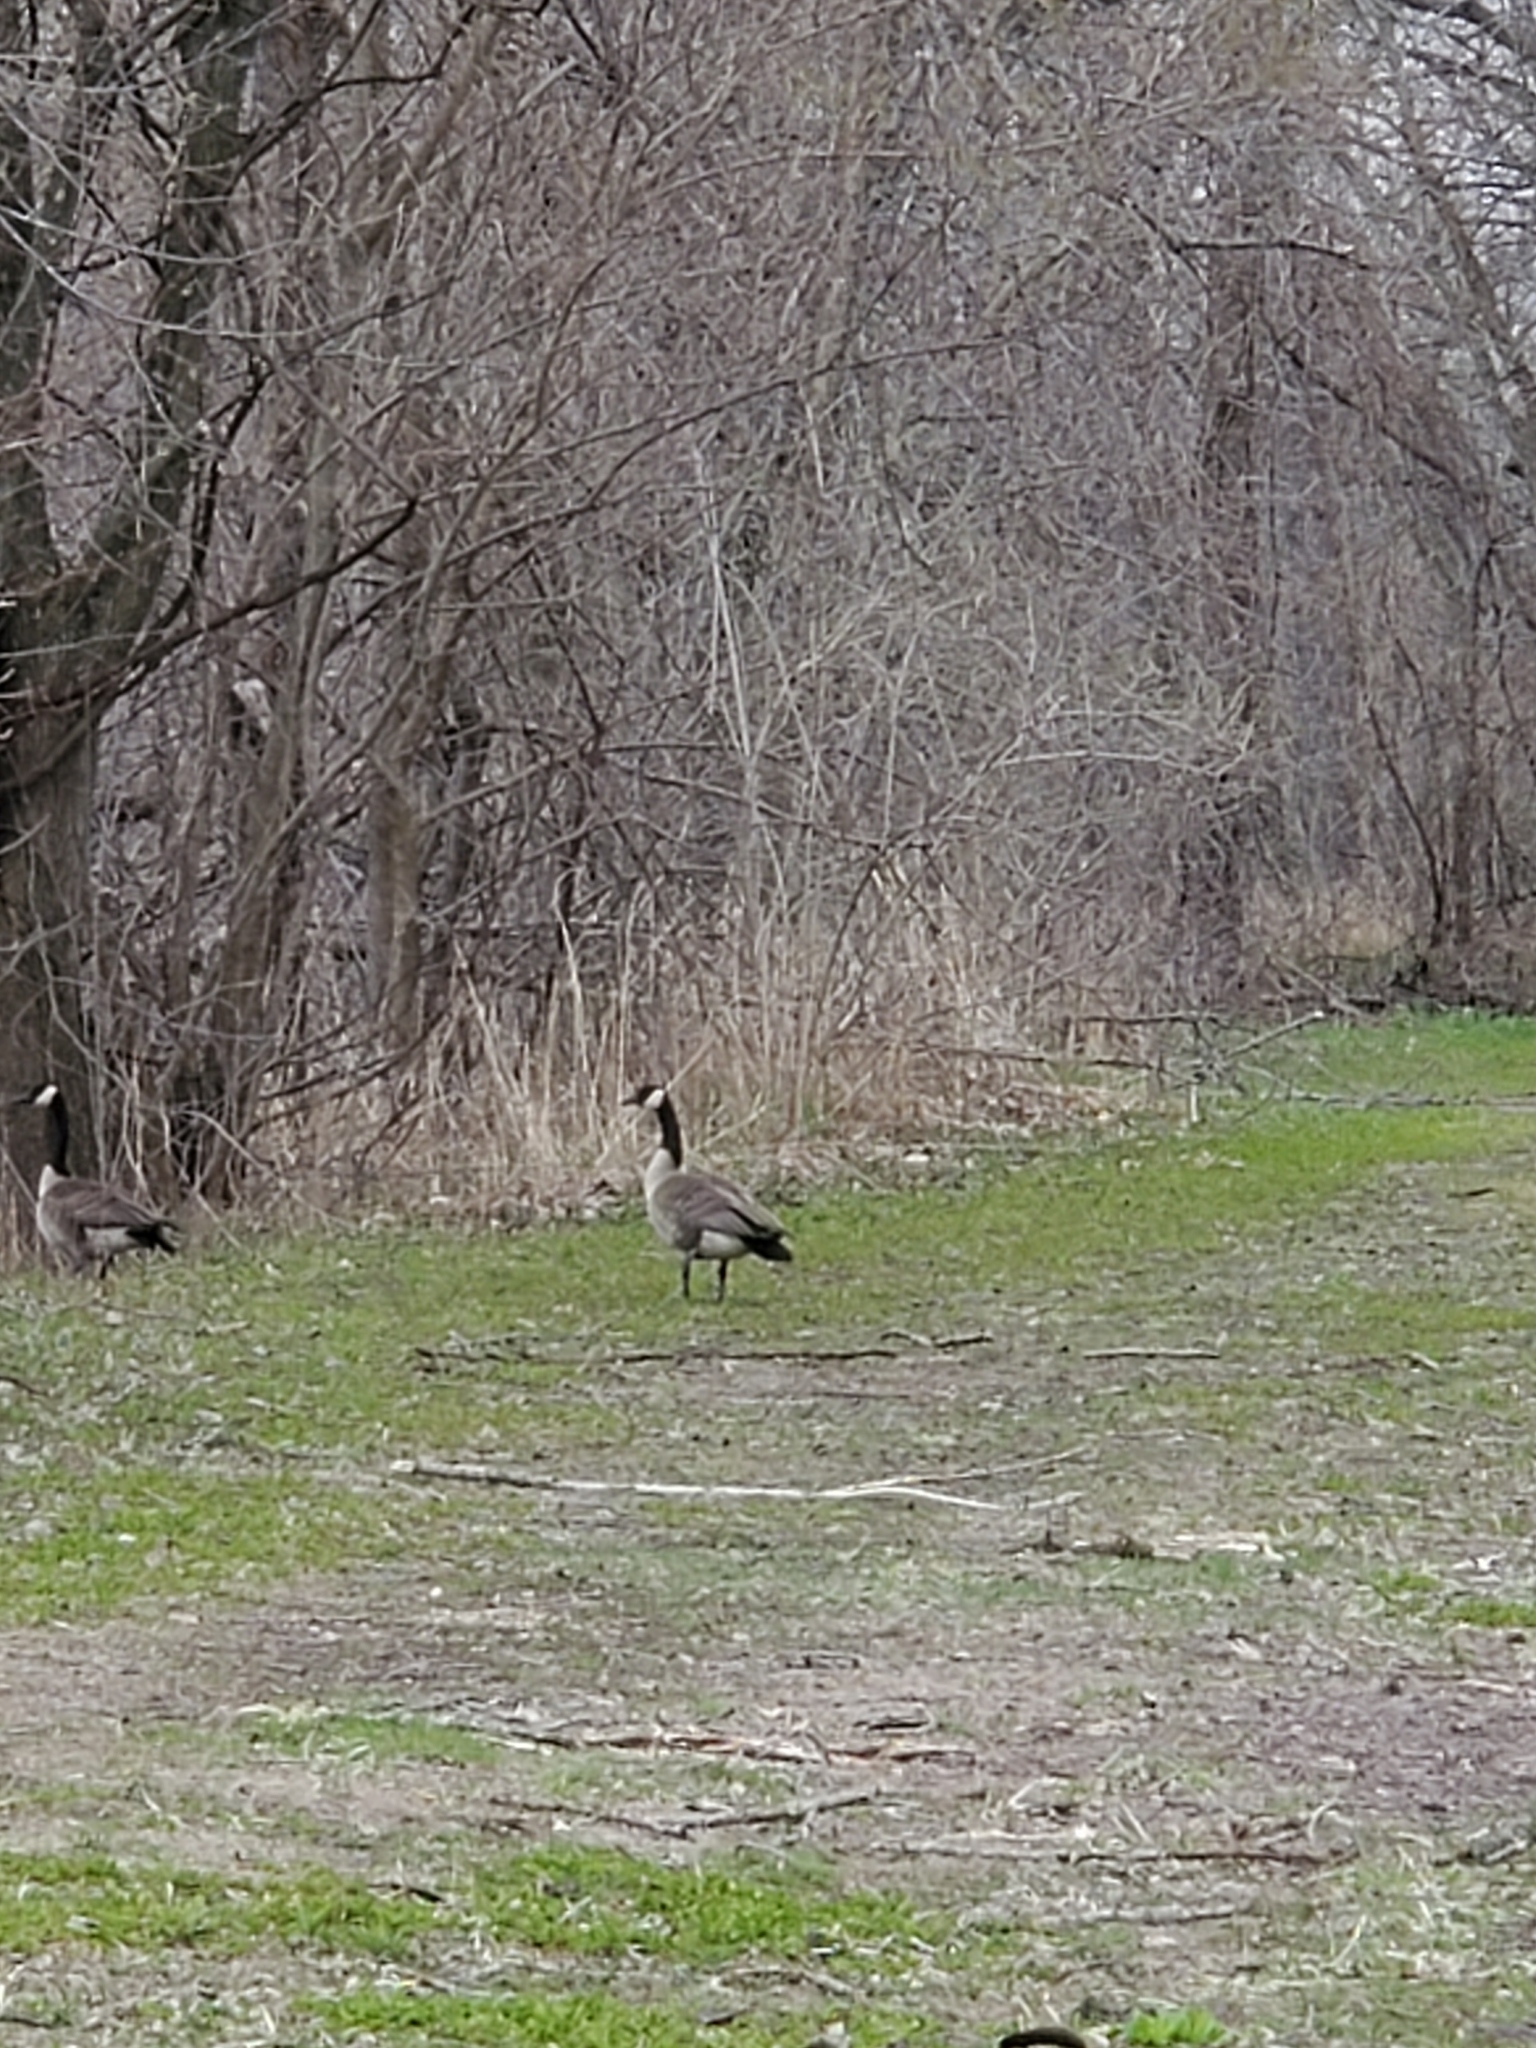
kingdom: Animalia
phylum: Chordata
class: Aves
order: Anseriformes
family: Anatidae
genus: Branta
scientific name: Branta canadensis
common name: Canada goose
